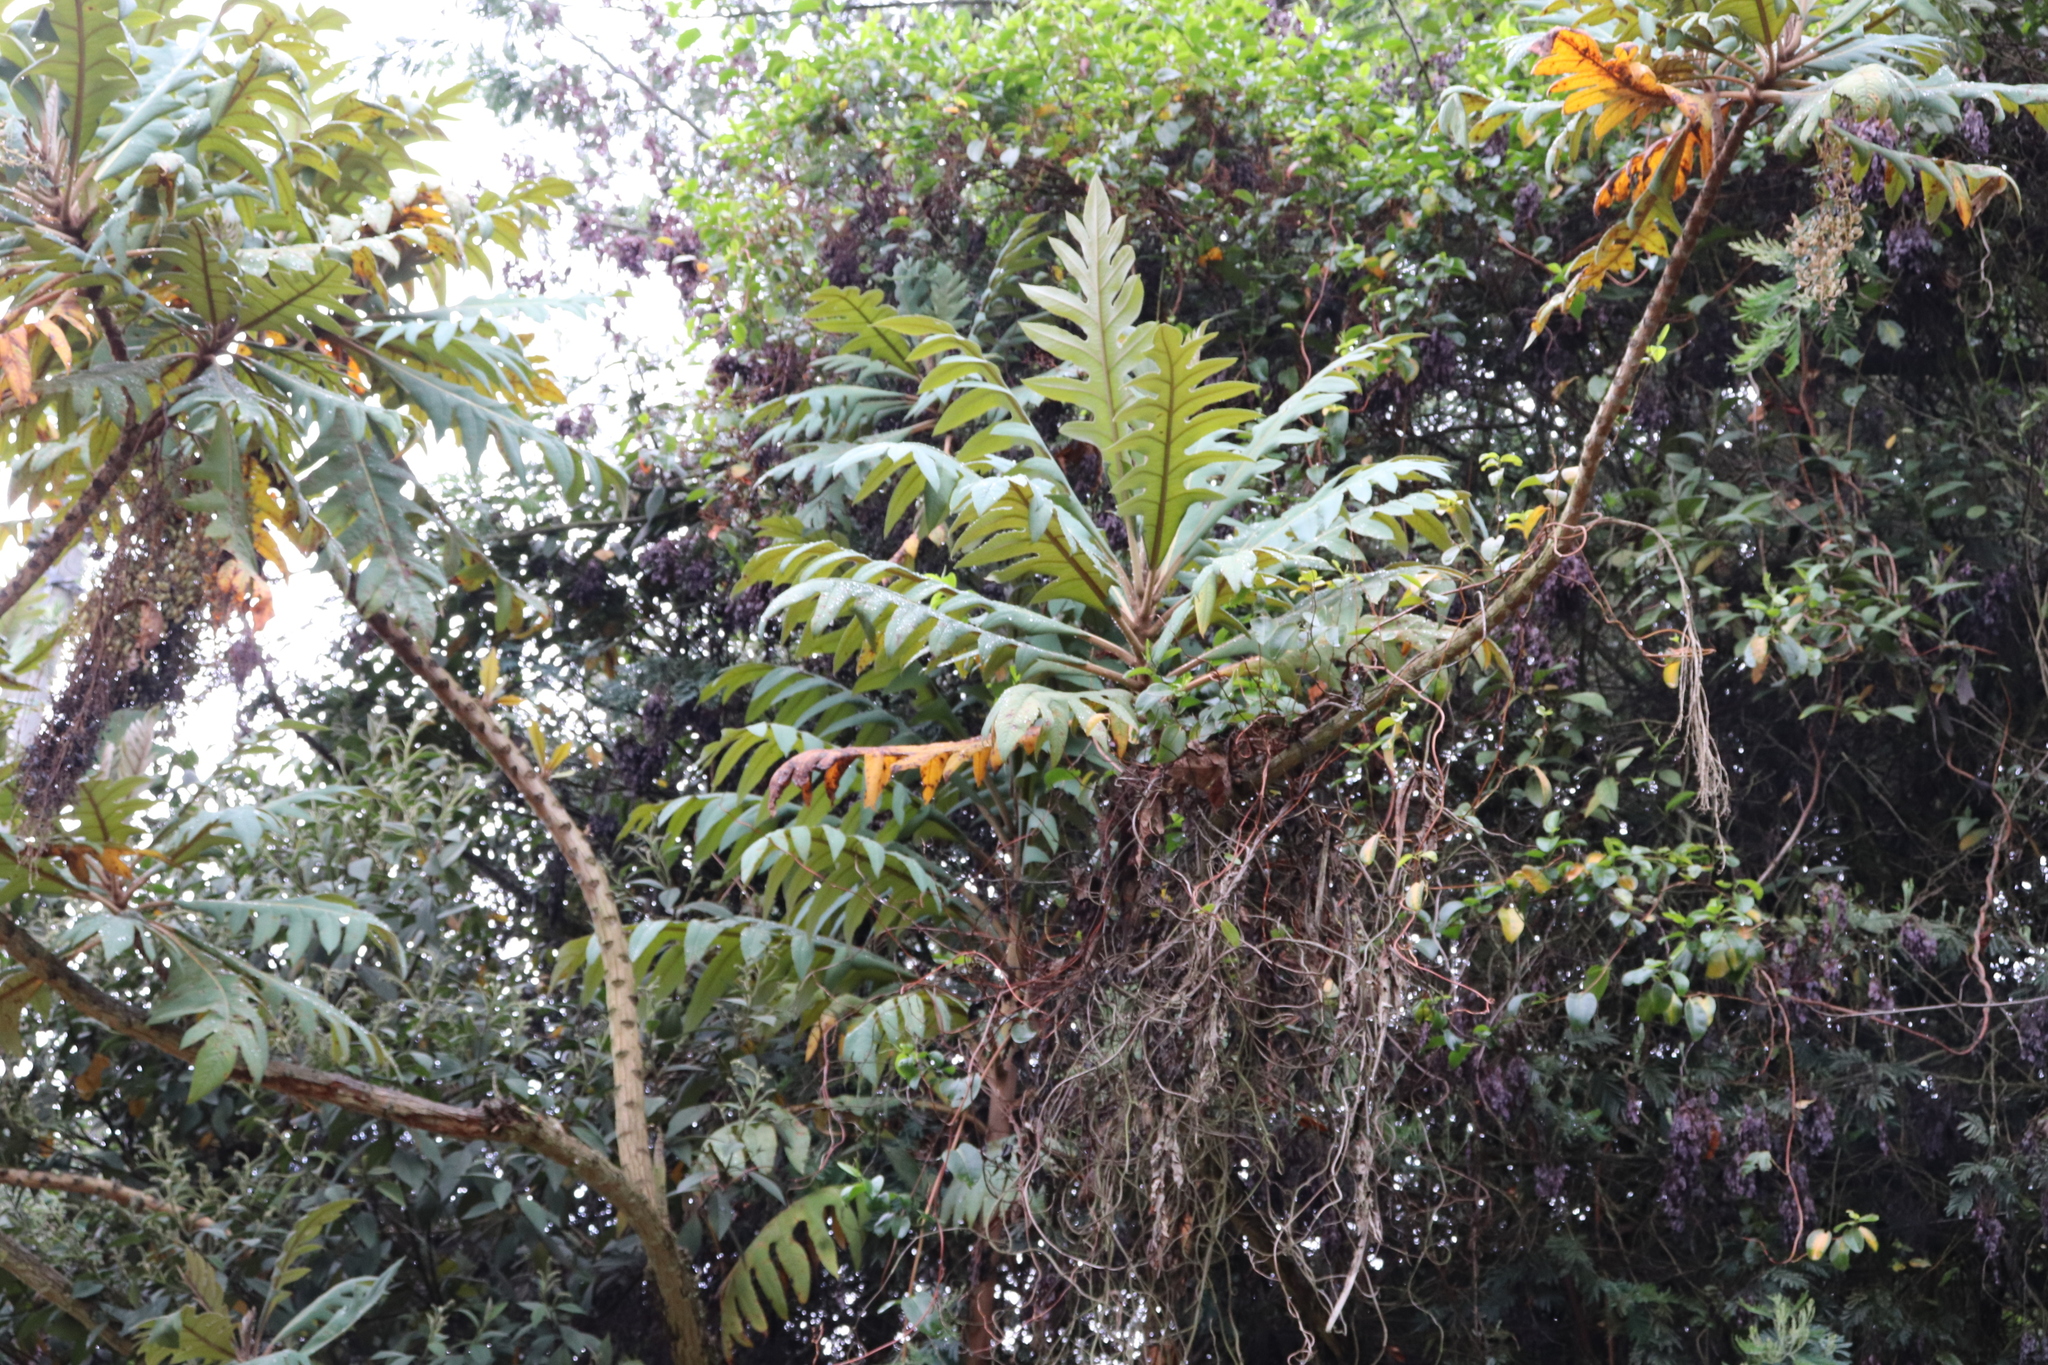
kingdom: Plantae
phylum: Tracheophyta
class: Magnoliopsida
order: Ranunculales
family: Papaveraceae
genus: Bocconia
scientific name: Bocconia frutescens
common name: Tree poppy
